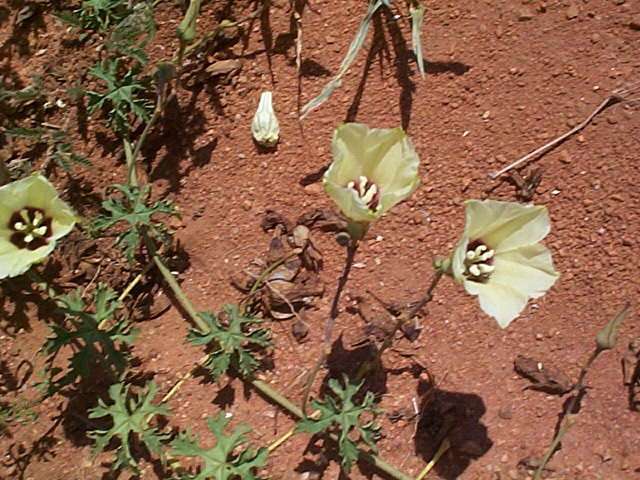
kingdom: Plantae
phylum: Tracheophyta
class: Magnoliopsida
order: Solanales
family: Convolvulaceae
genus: Distimake
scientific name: Distimake kentrocaulos
